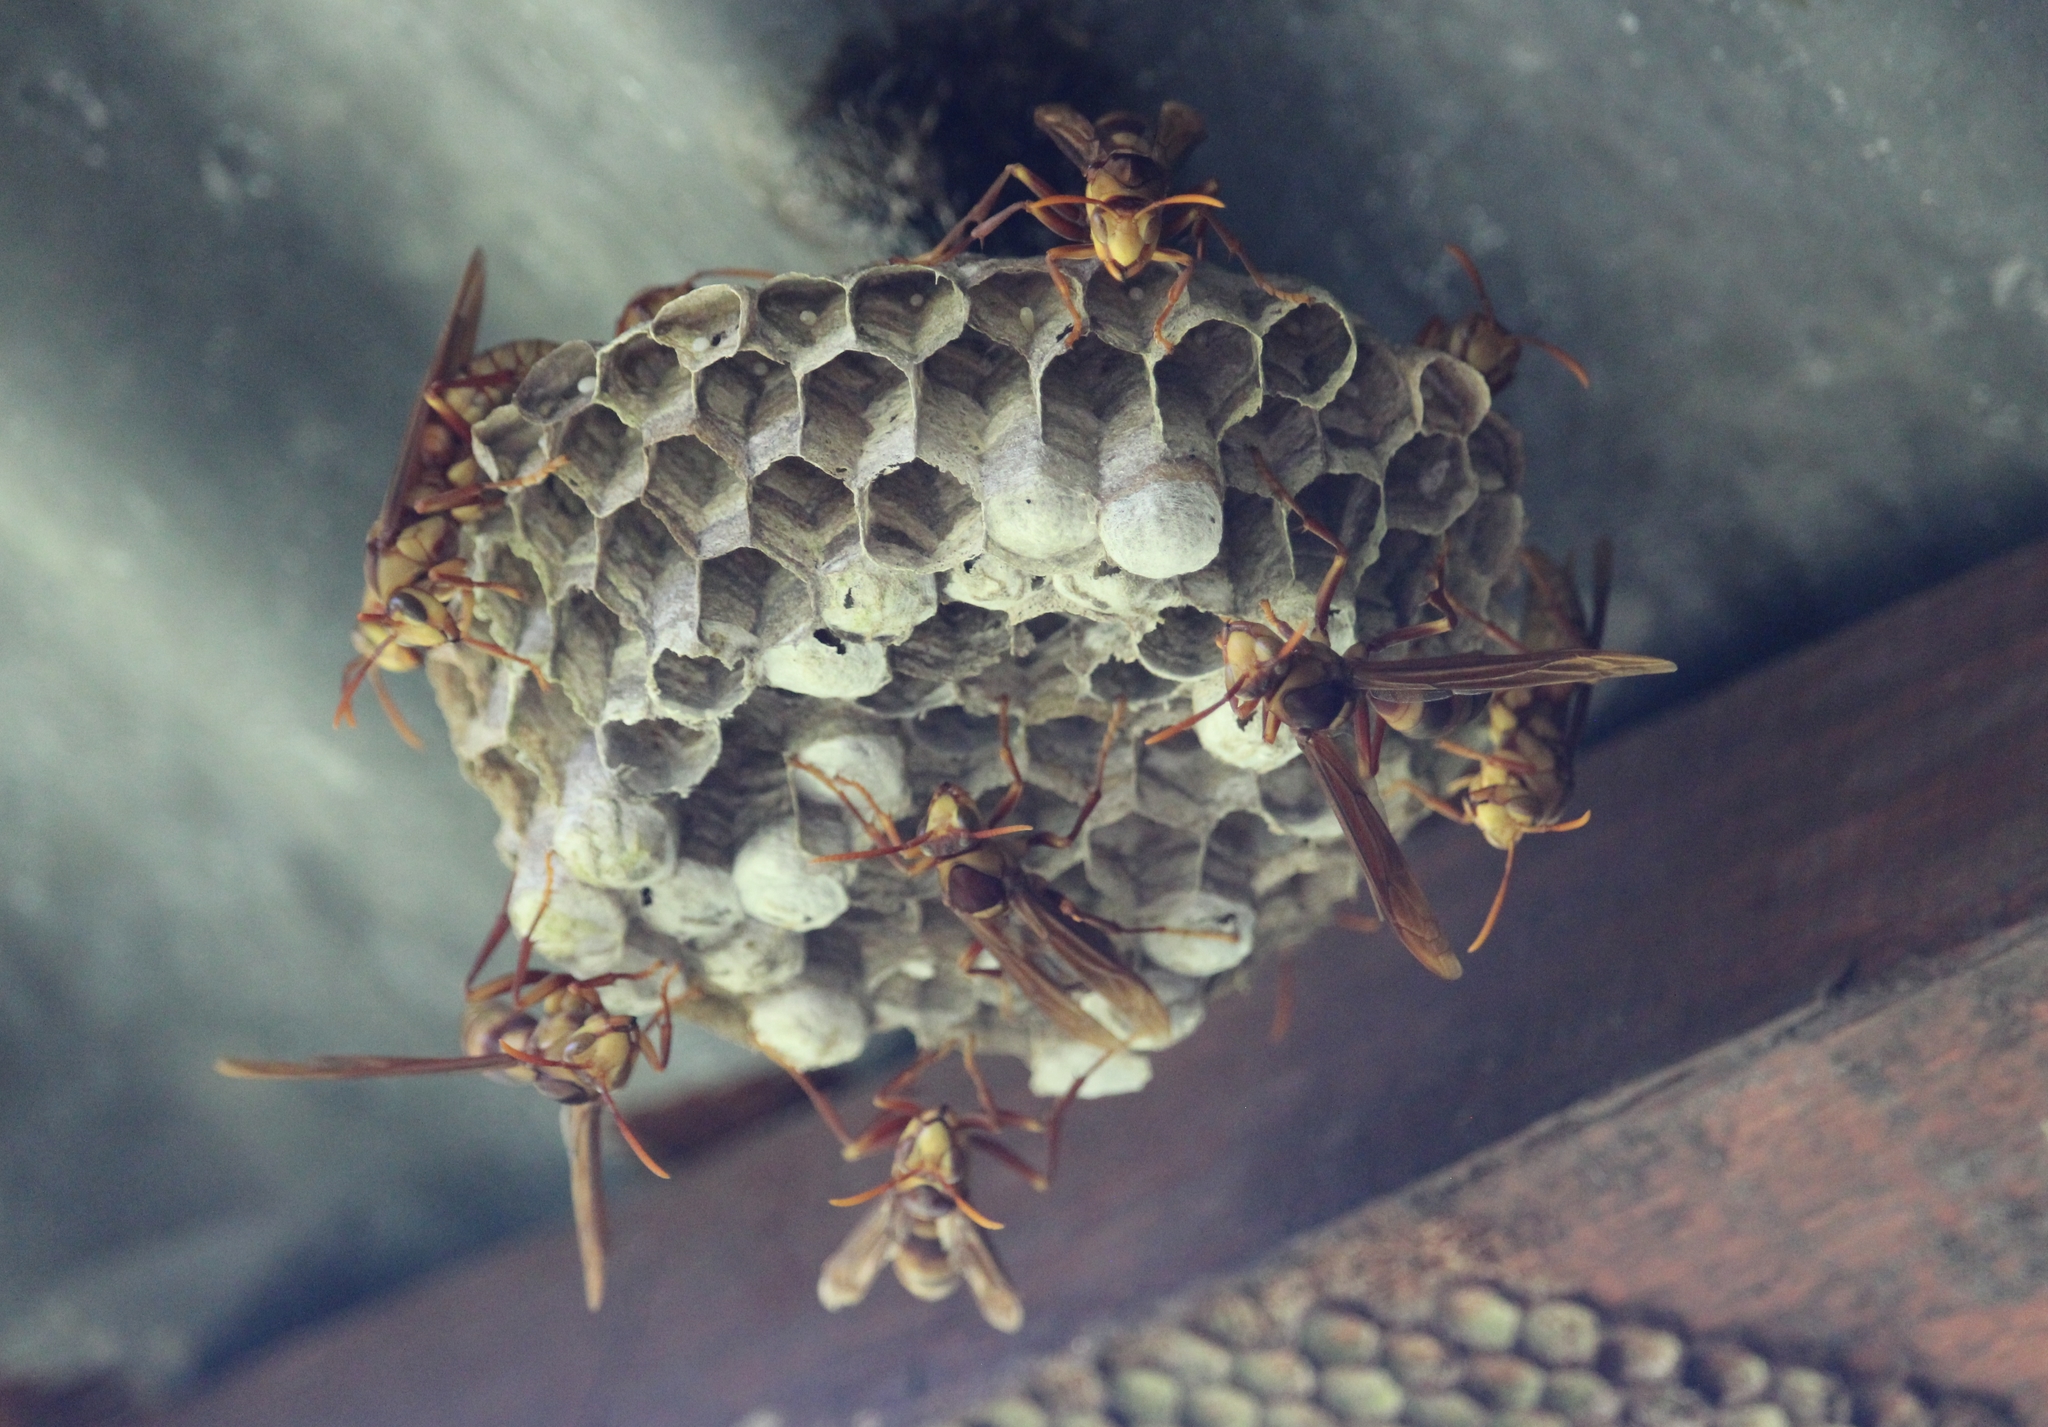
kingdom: Animalia
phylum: Arthropoda
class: Insecta
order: Hymenoptera
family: Eumenidae
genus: Polistes
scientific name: Polistes carnifex
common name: Paper wasp
